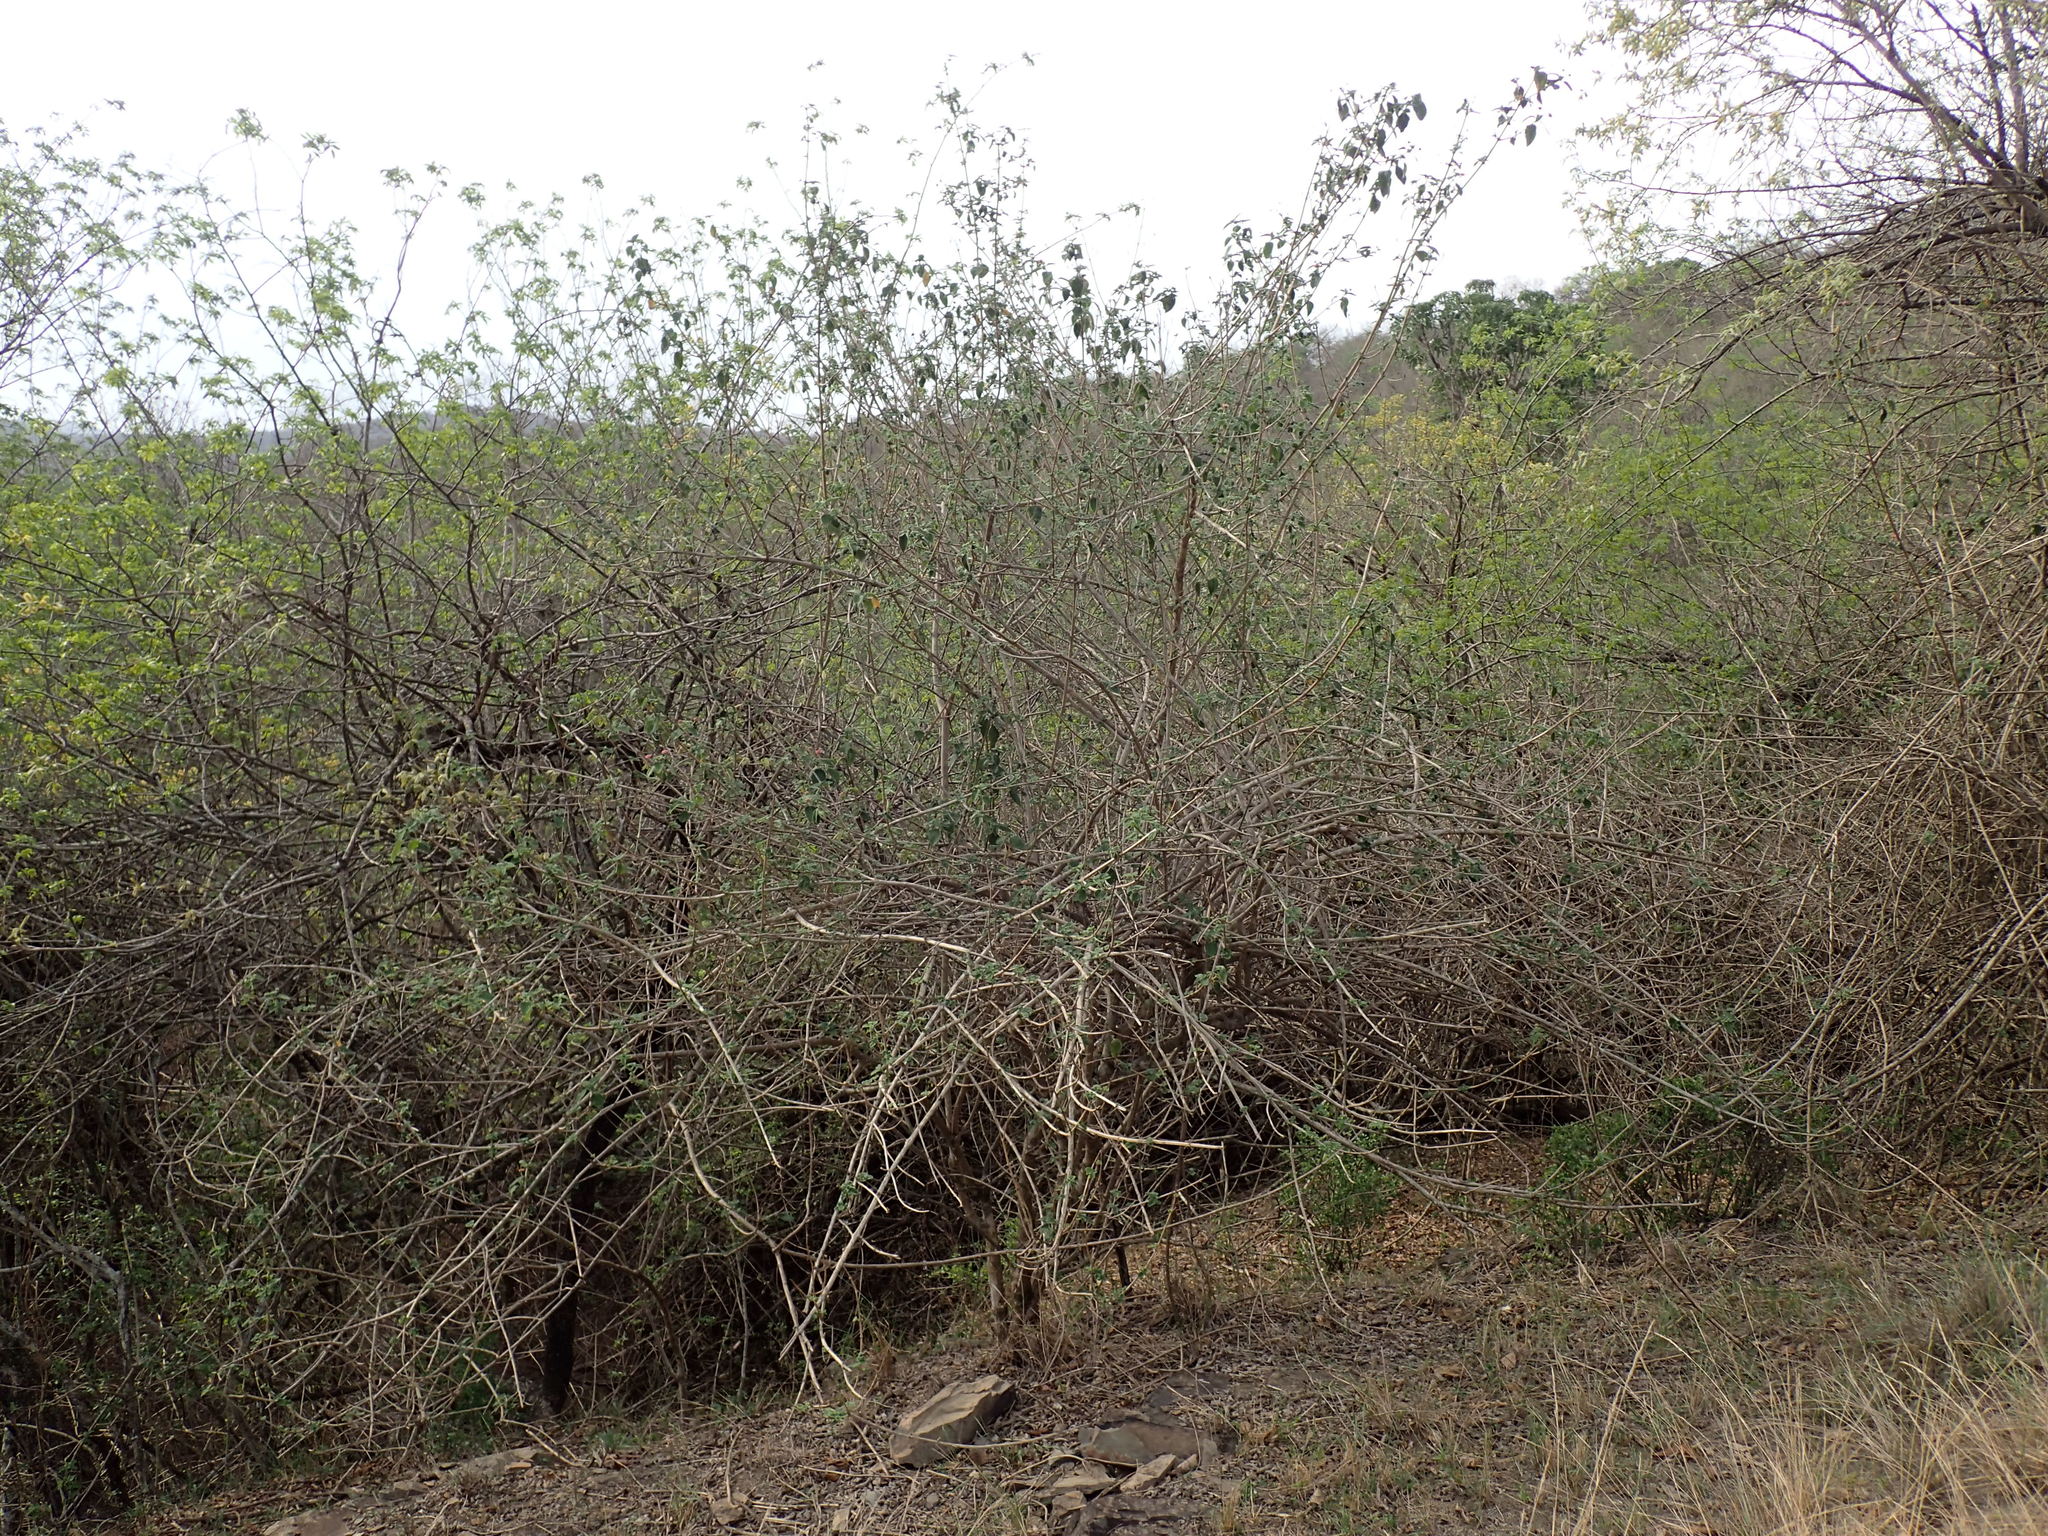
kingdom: Plantae
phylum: Tracheophyta
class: Magnoliopsida
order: Lamiales
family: Verbenaceae
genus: Lantana
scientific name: Lantana camara
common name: Lantana
